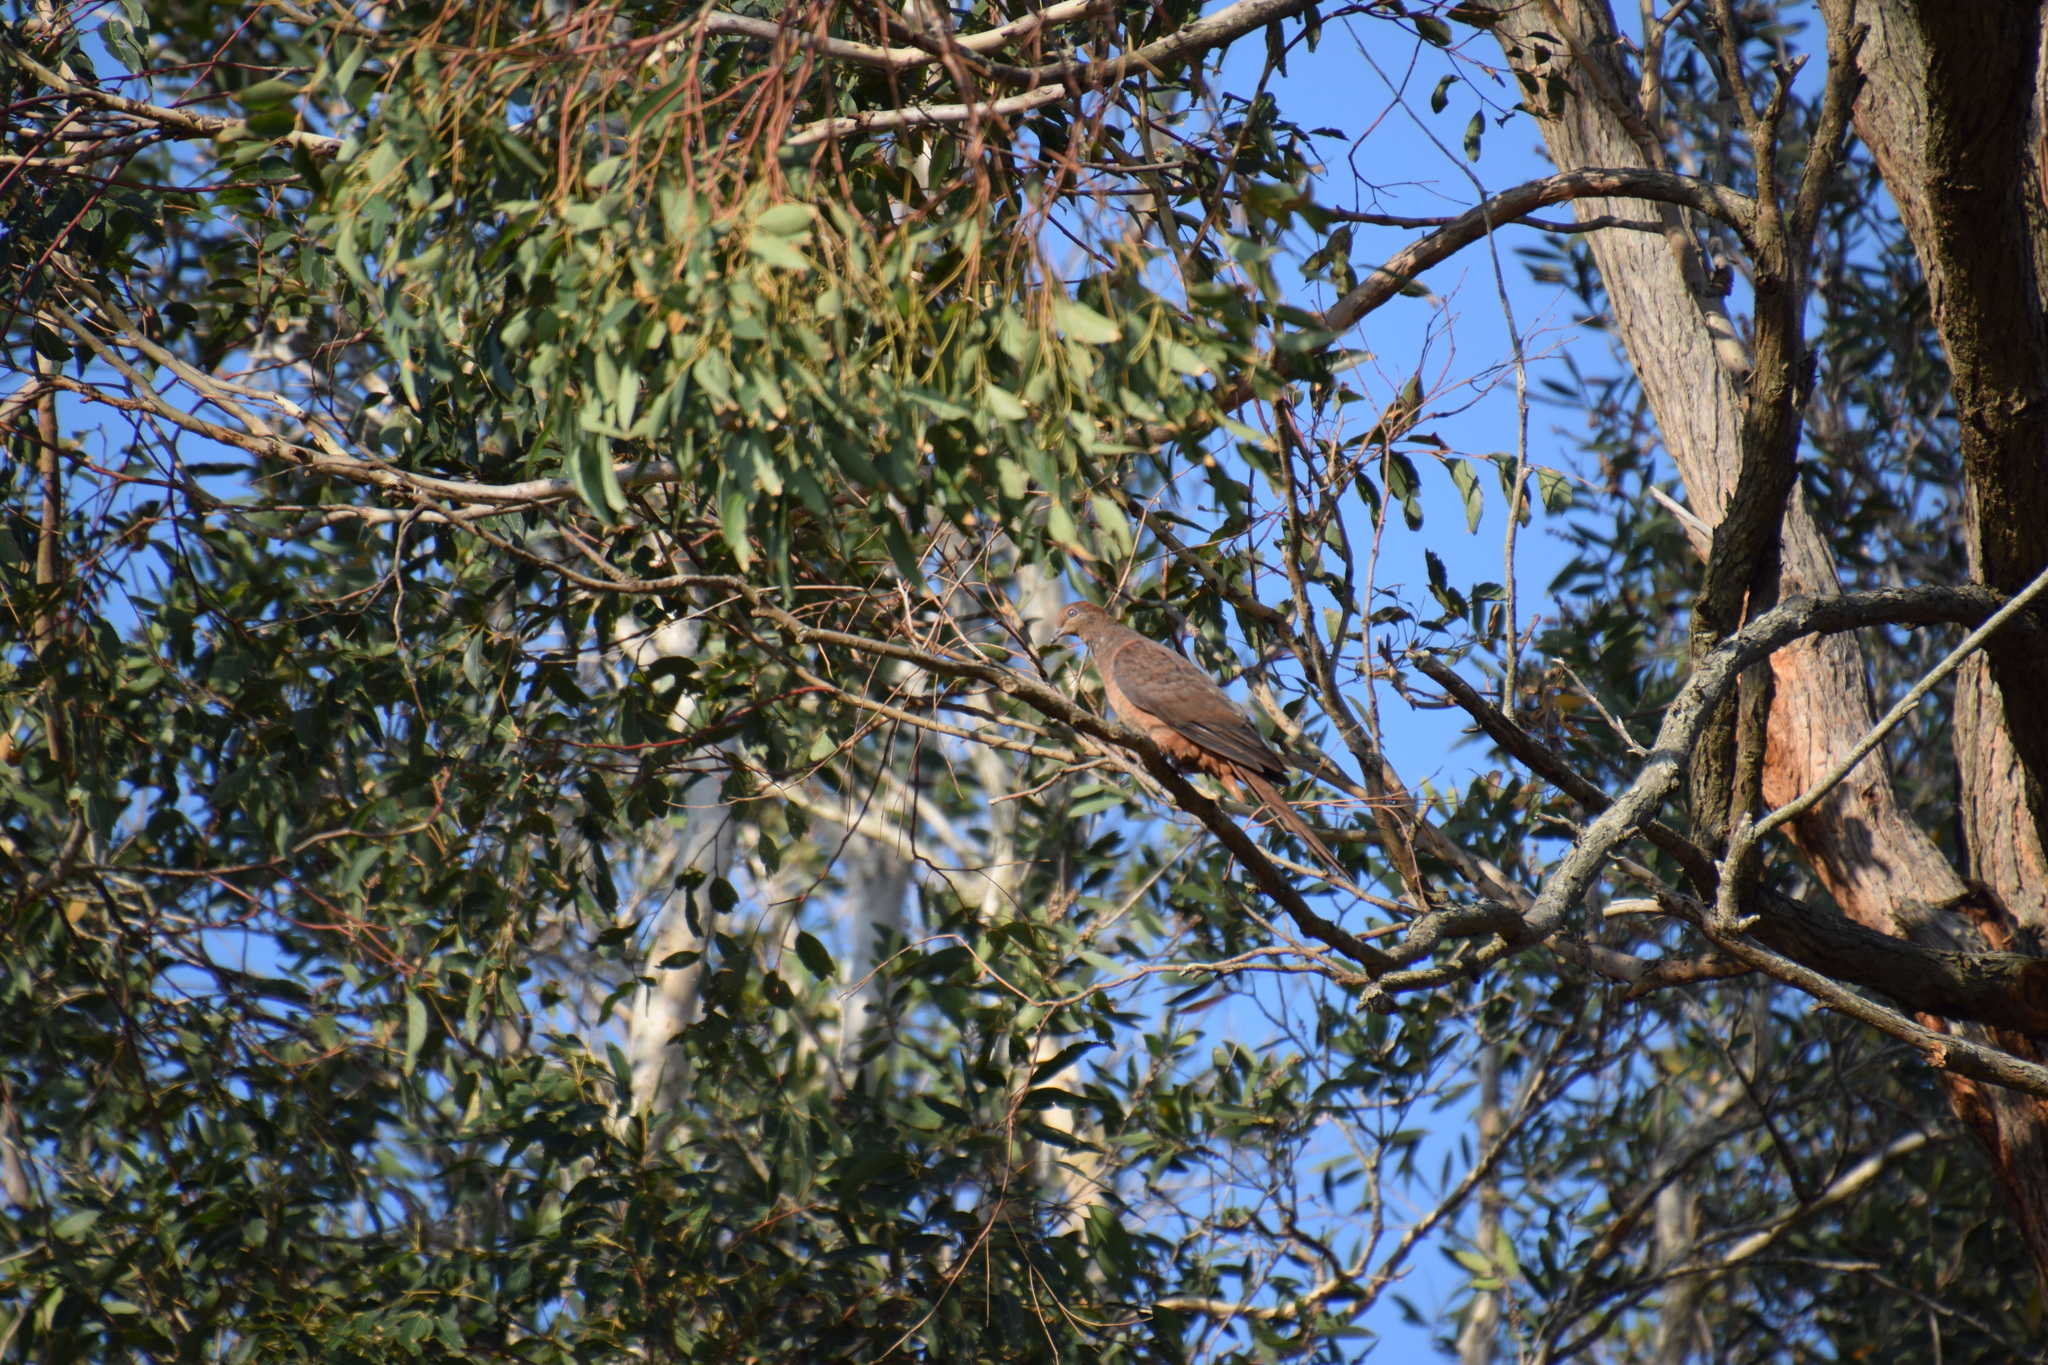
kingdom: Animalia
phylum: Chordata
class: Aves
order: Columbiformes
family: Columbidae
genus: Macropygia
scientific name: Macropygia phasianella
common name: Brown cuckoo-dove
